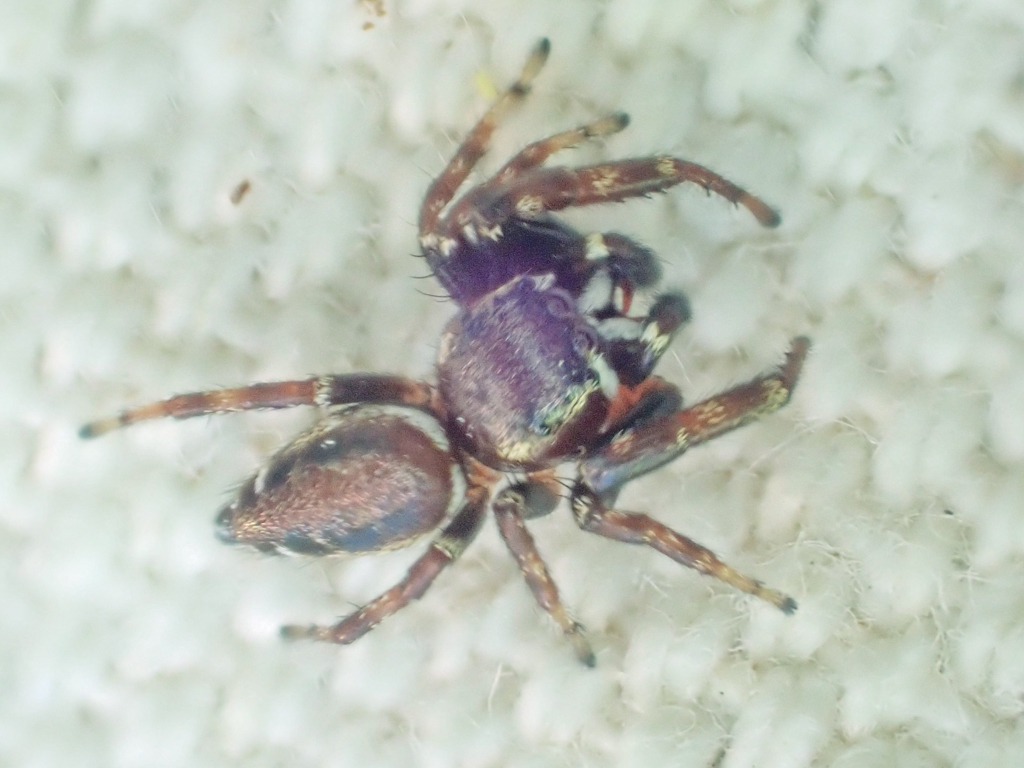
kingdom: Animalia
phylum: Arthropoda
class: Arachnida
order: Araneae
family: Salticidae
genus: Metaphidippus
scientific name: Metaphidippus manni
